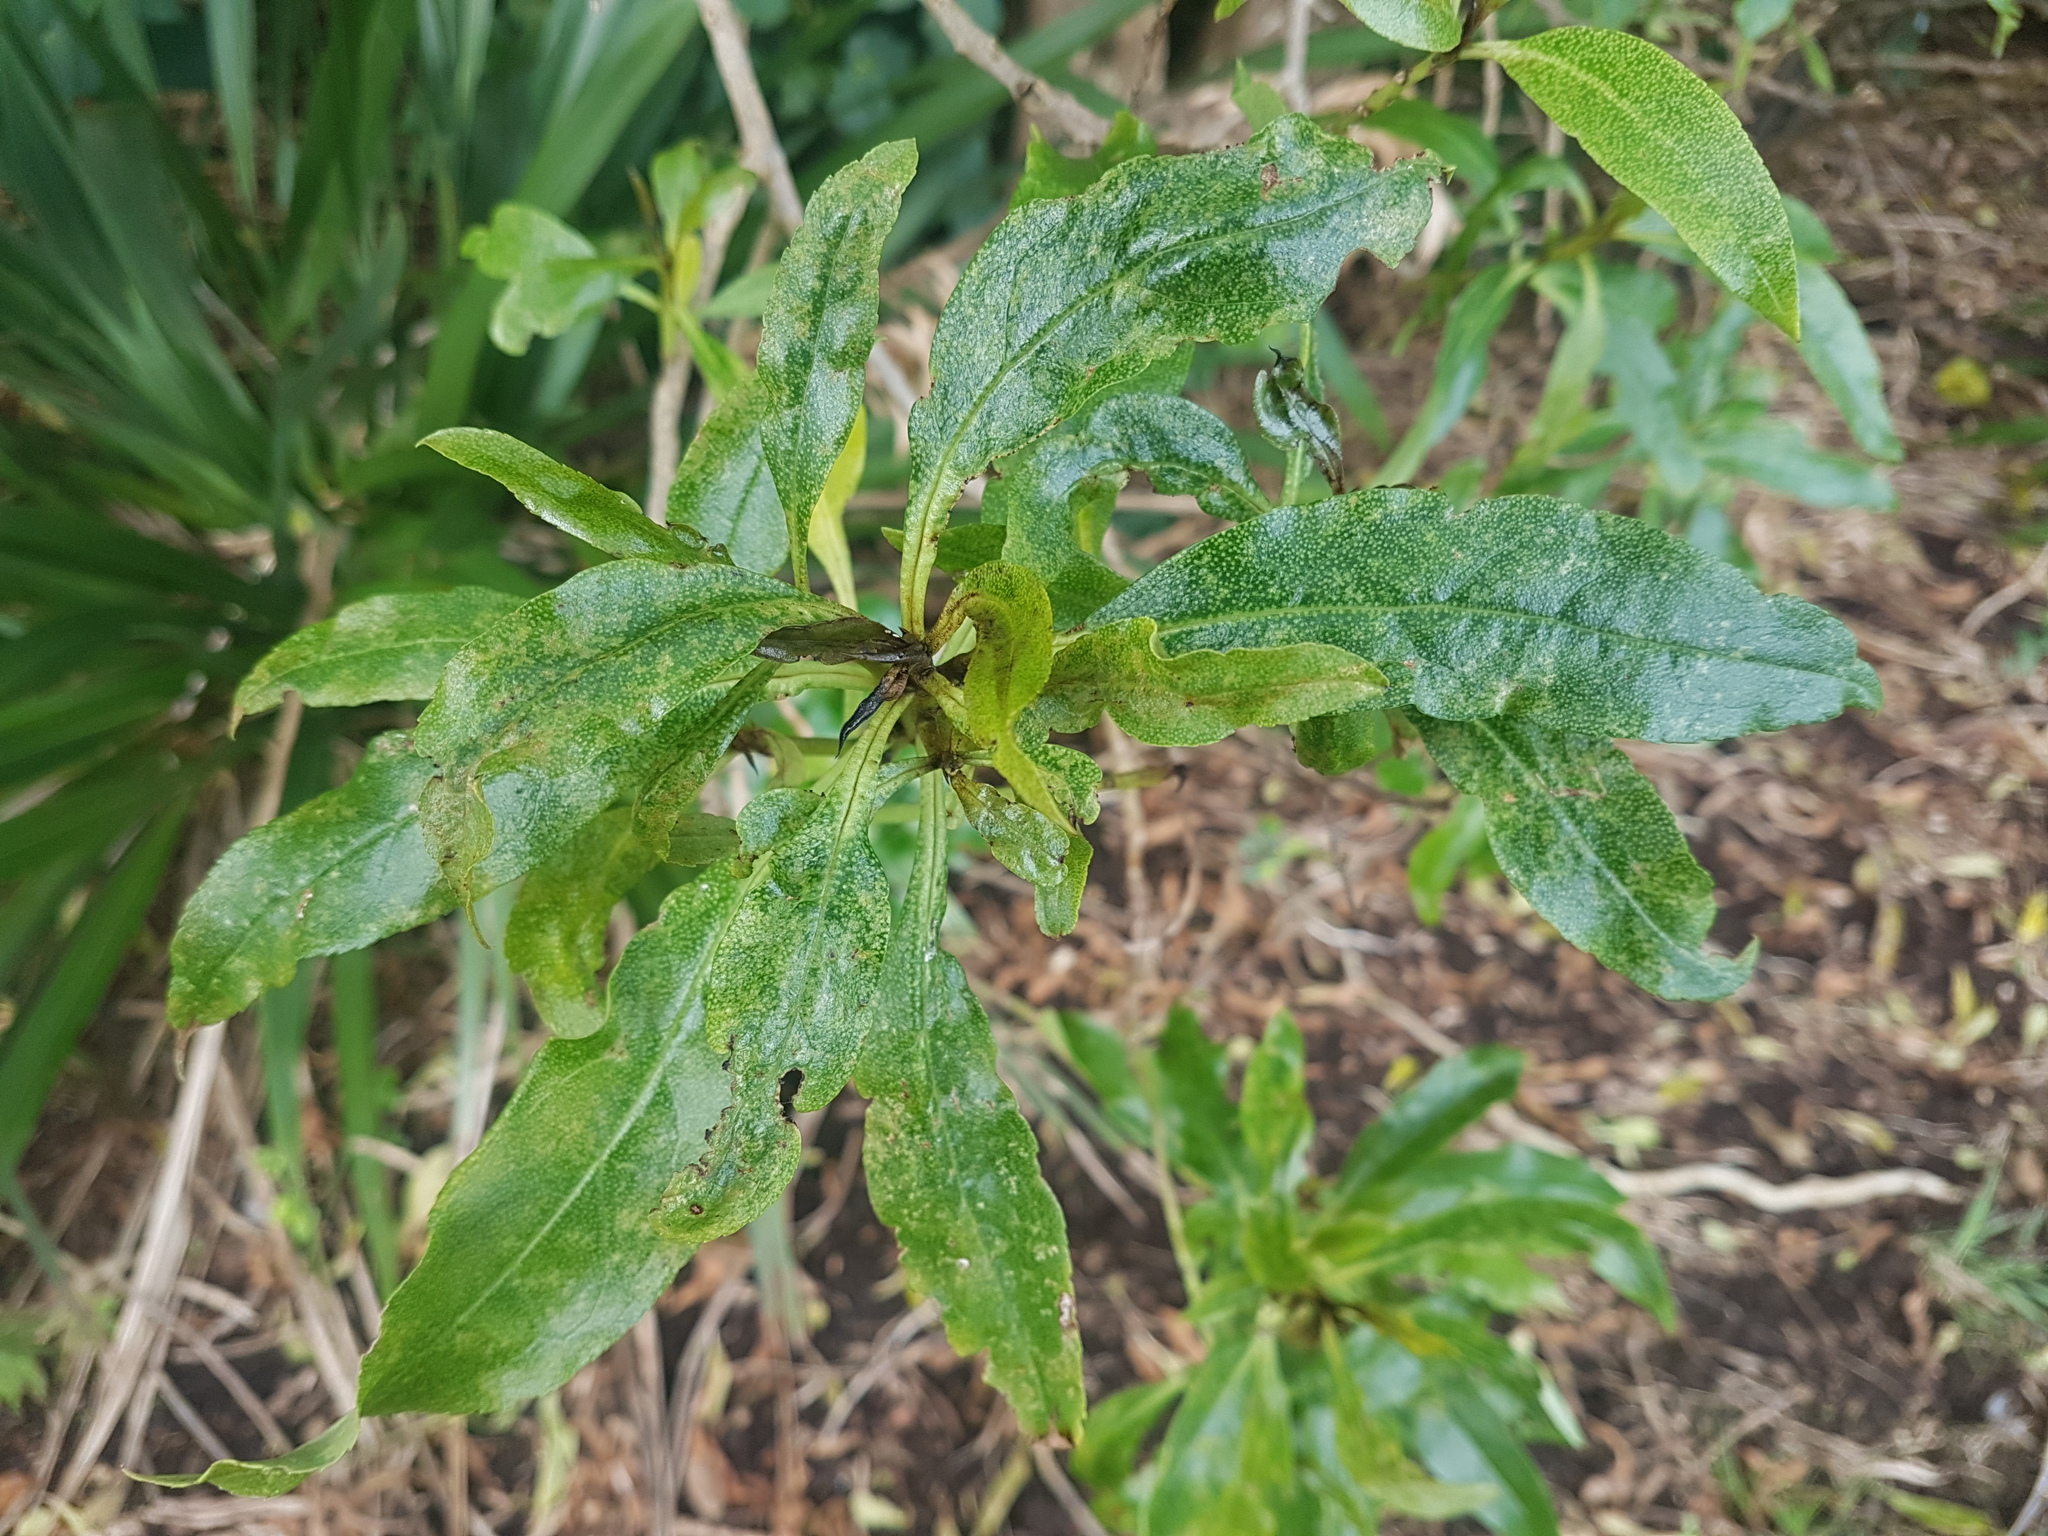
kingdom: Plantae
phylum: Tracheophyta
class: Magnoliopsida
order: Lamiales
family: Scrophulariaceae
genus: Myoporum
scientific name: Myoporum laetum
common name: Ngaio tree
